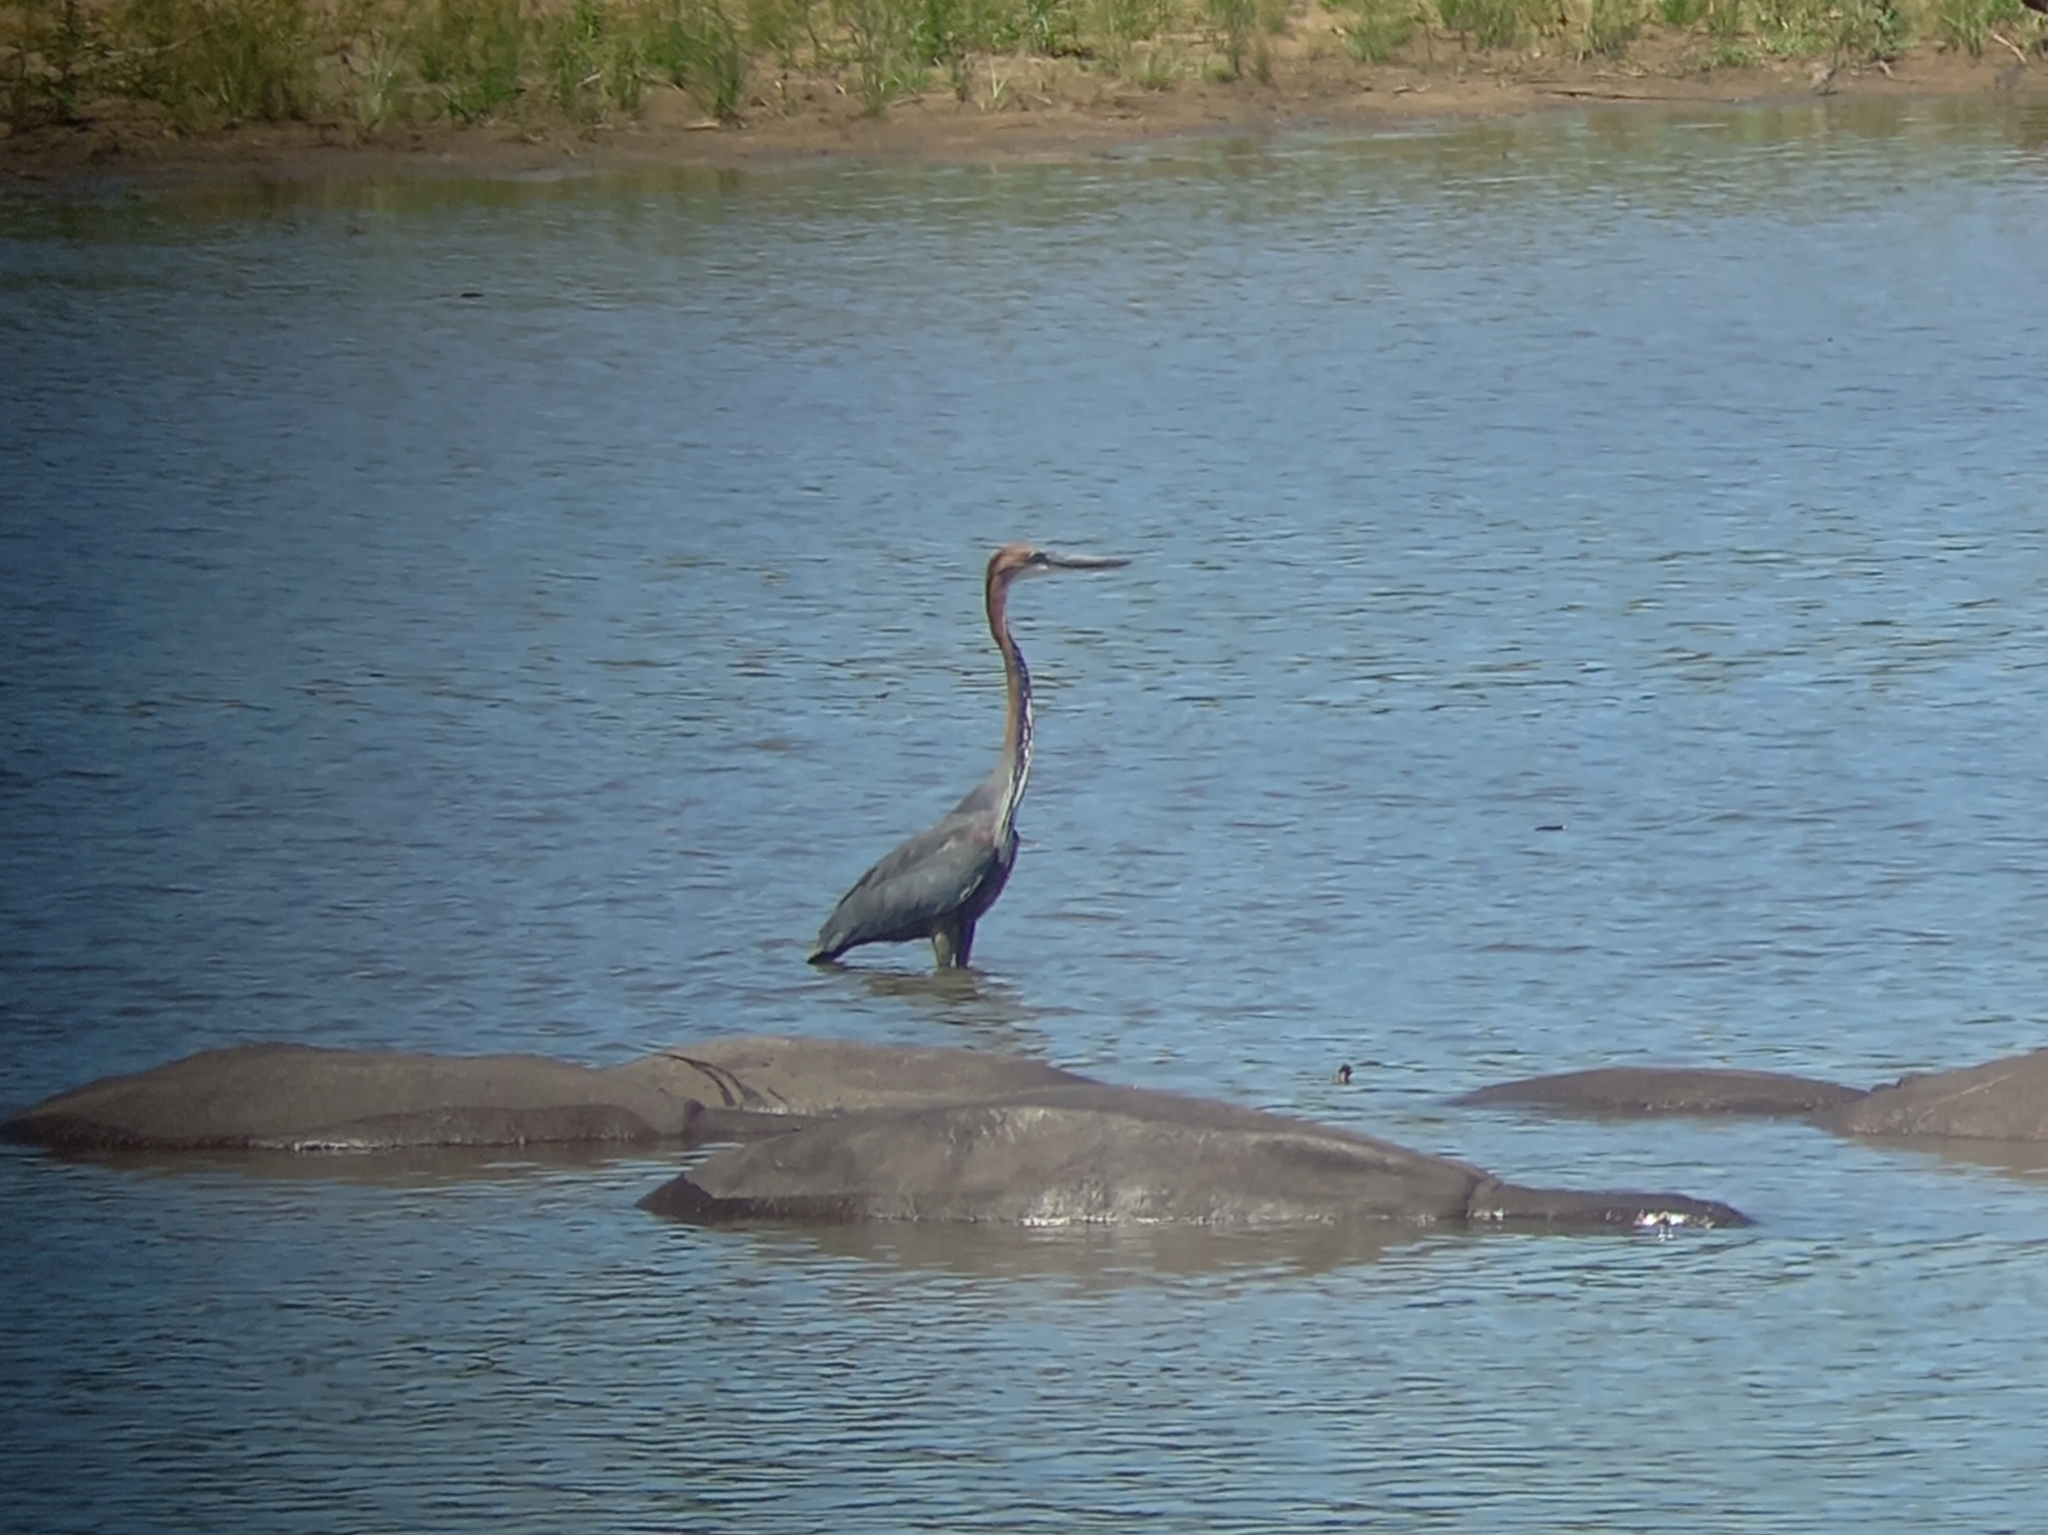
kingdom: Animalia
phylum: Chordata
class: Aves
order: Pelecaniformes
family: Ardeidae
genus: Ardea
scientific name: Ardea goliath
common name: Goliath heron
